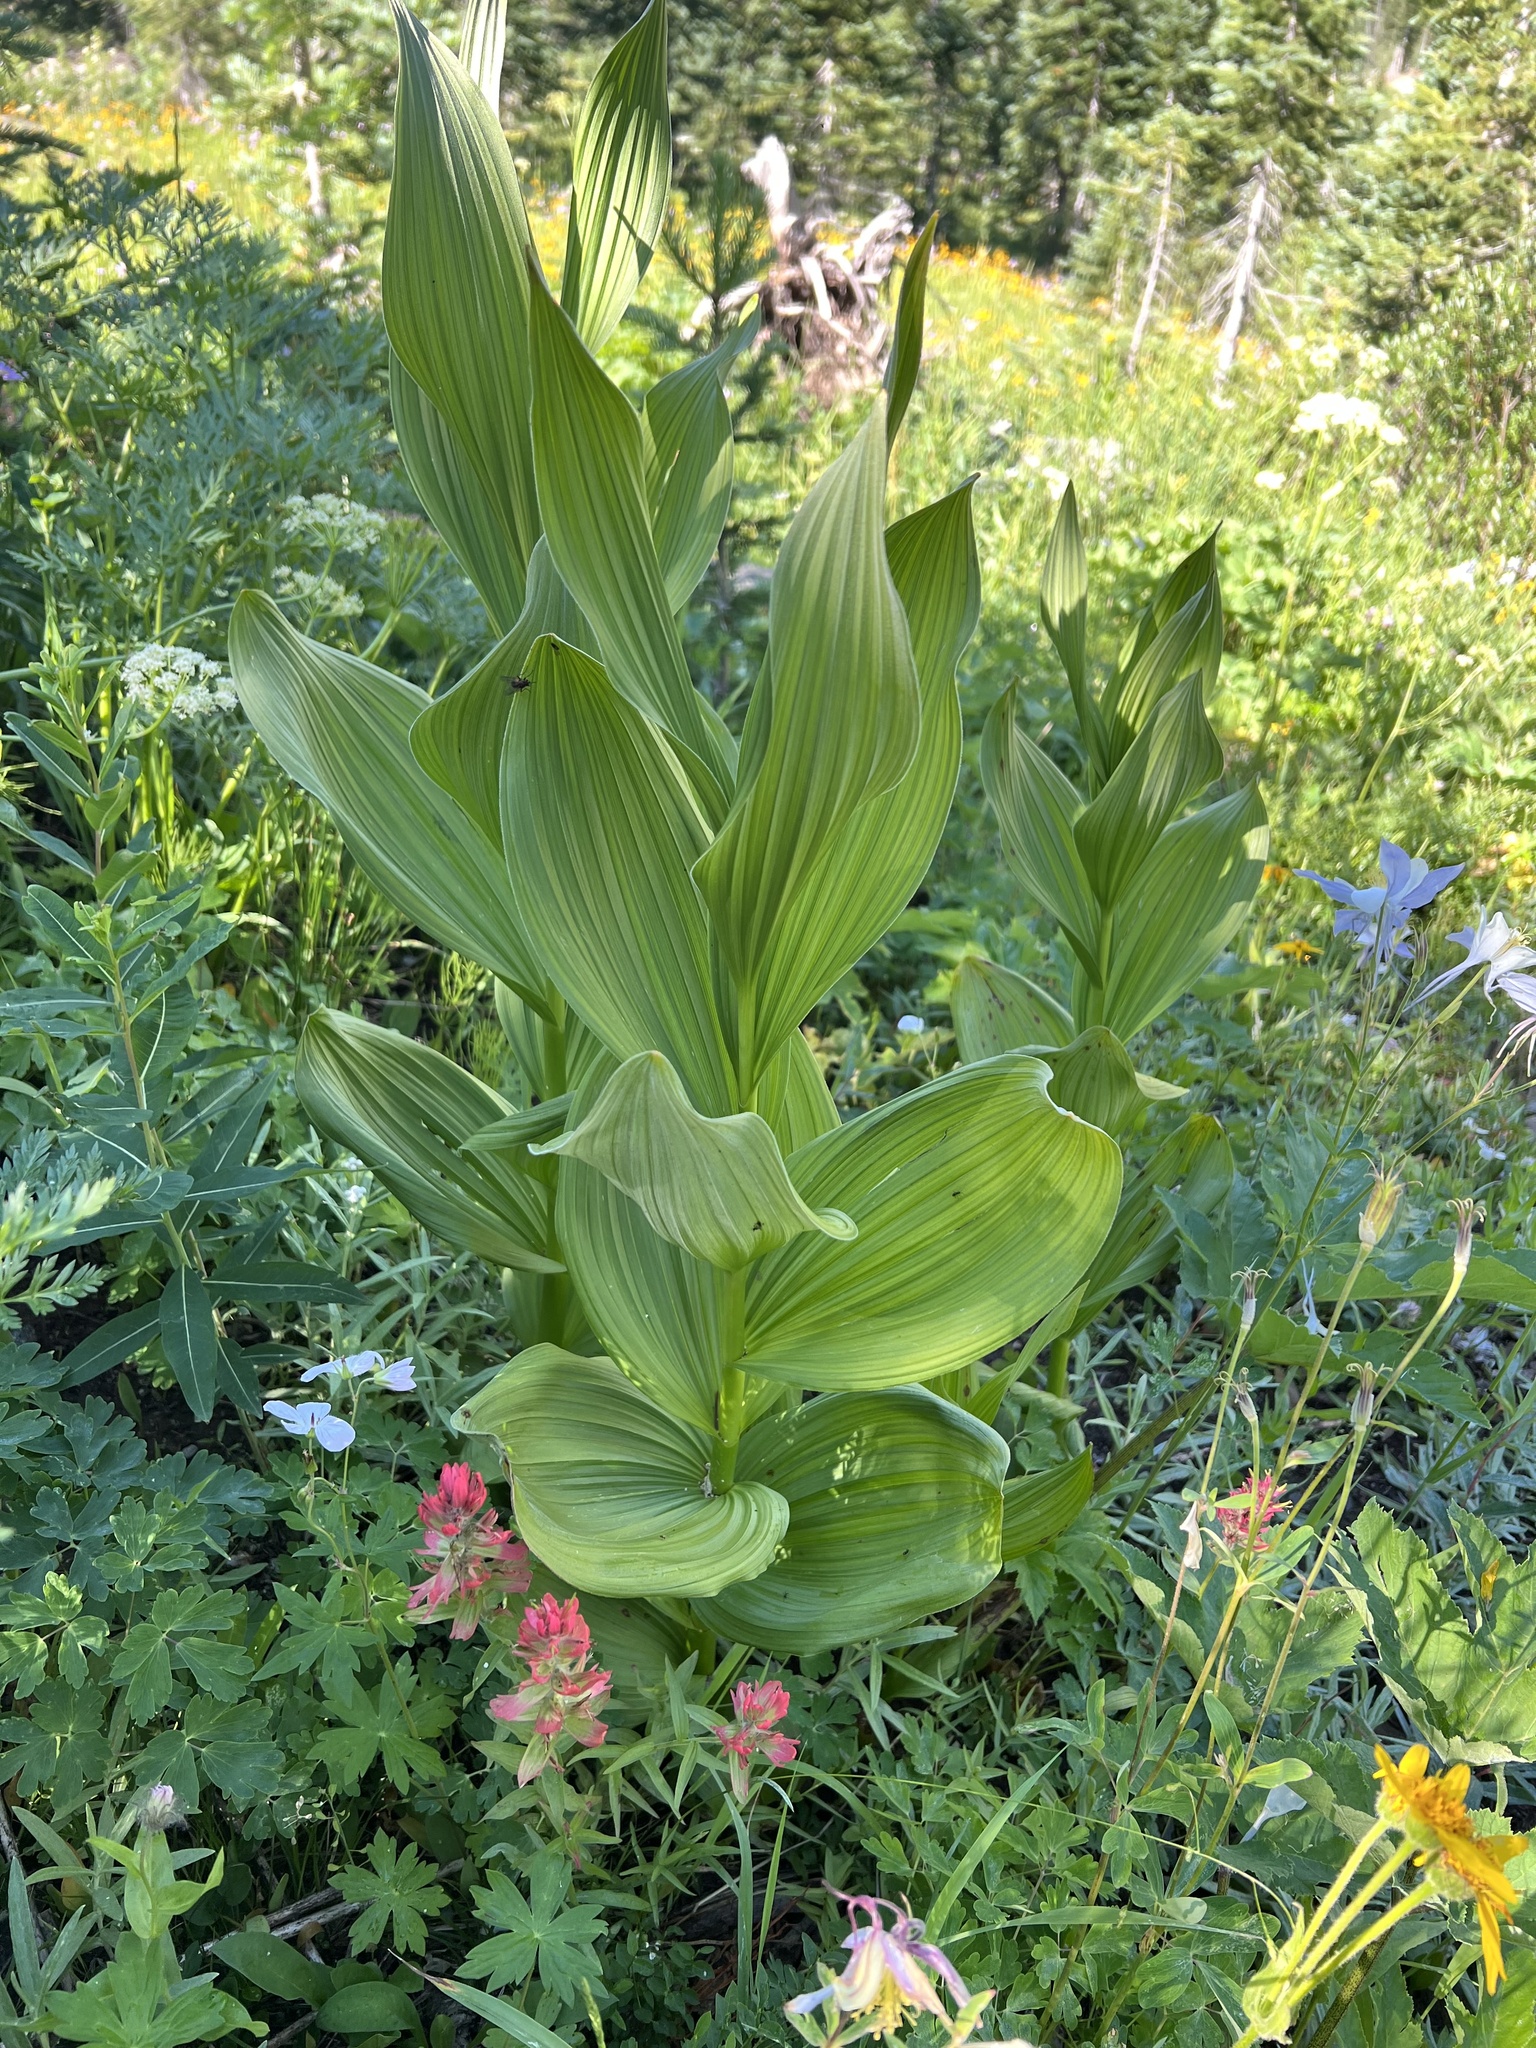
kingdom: Plantae
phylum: Tracheophyta
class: Liliopsida
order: Liliales
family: Melanthiaceae
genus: Veratrum
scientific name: Veratrum californicum
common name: California veratrum
